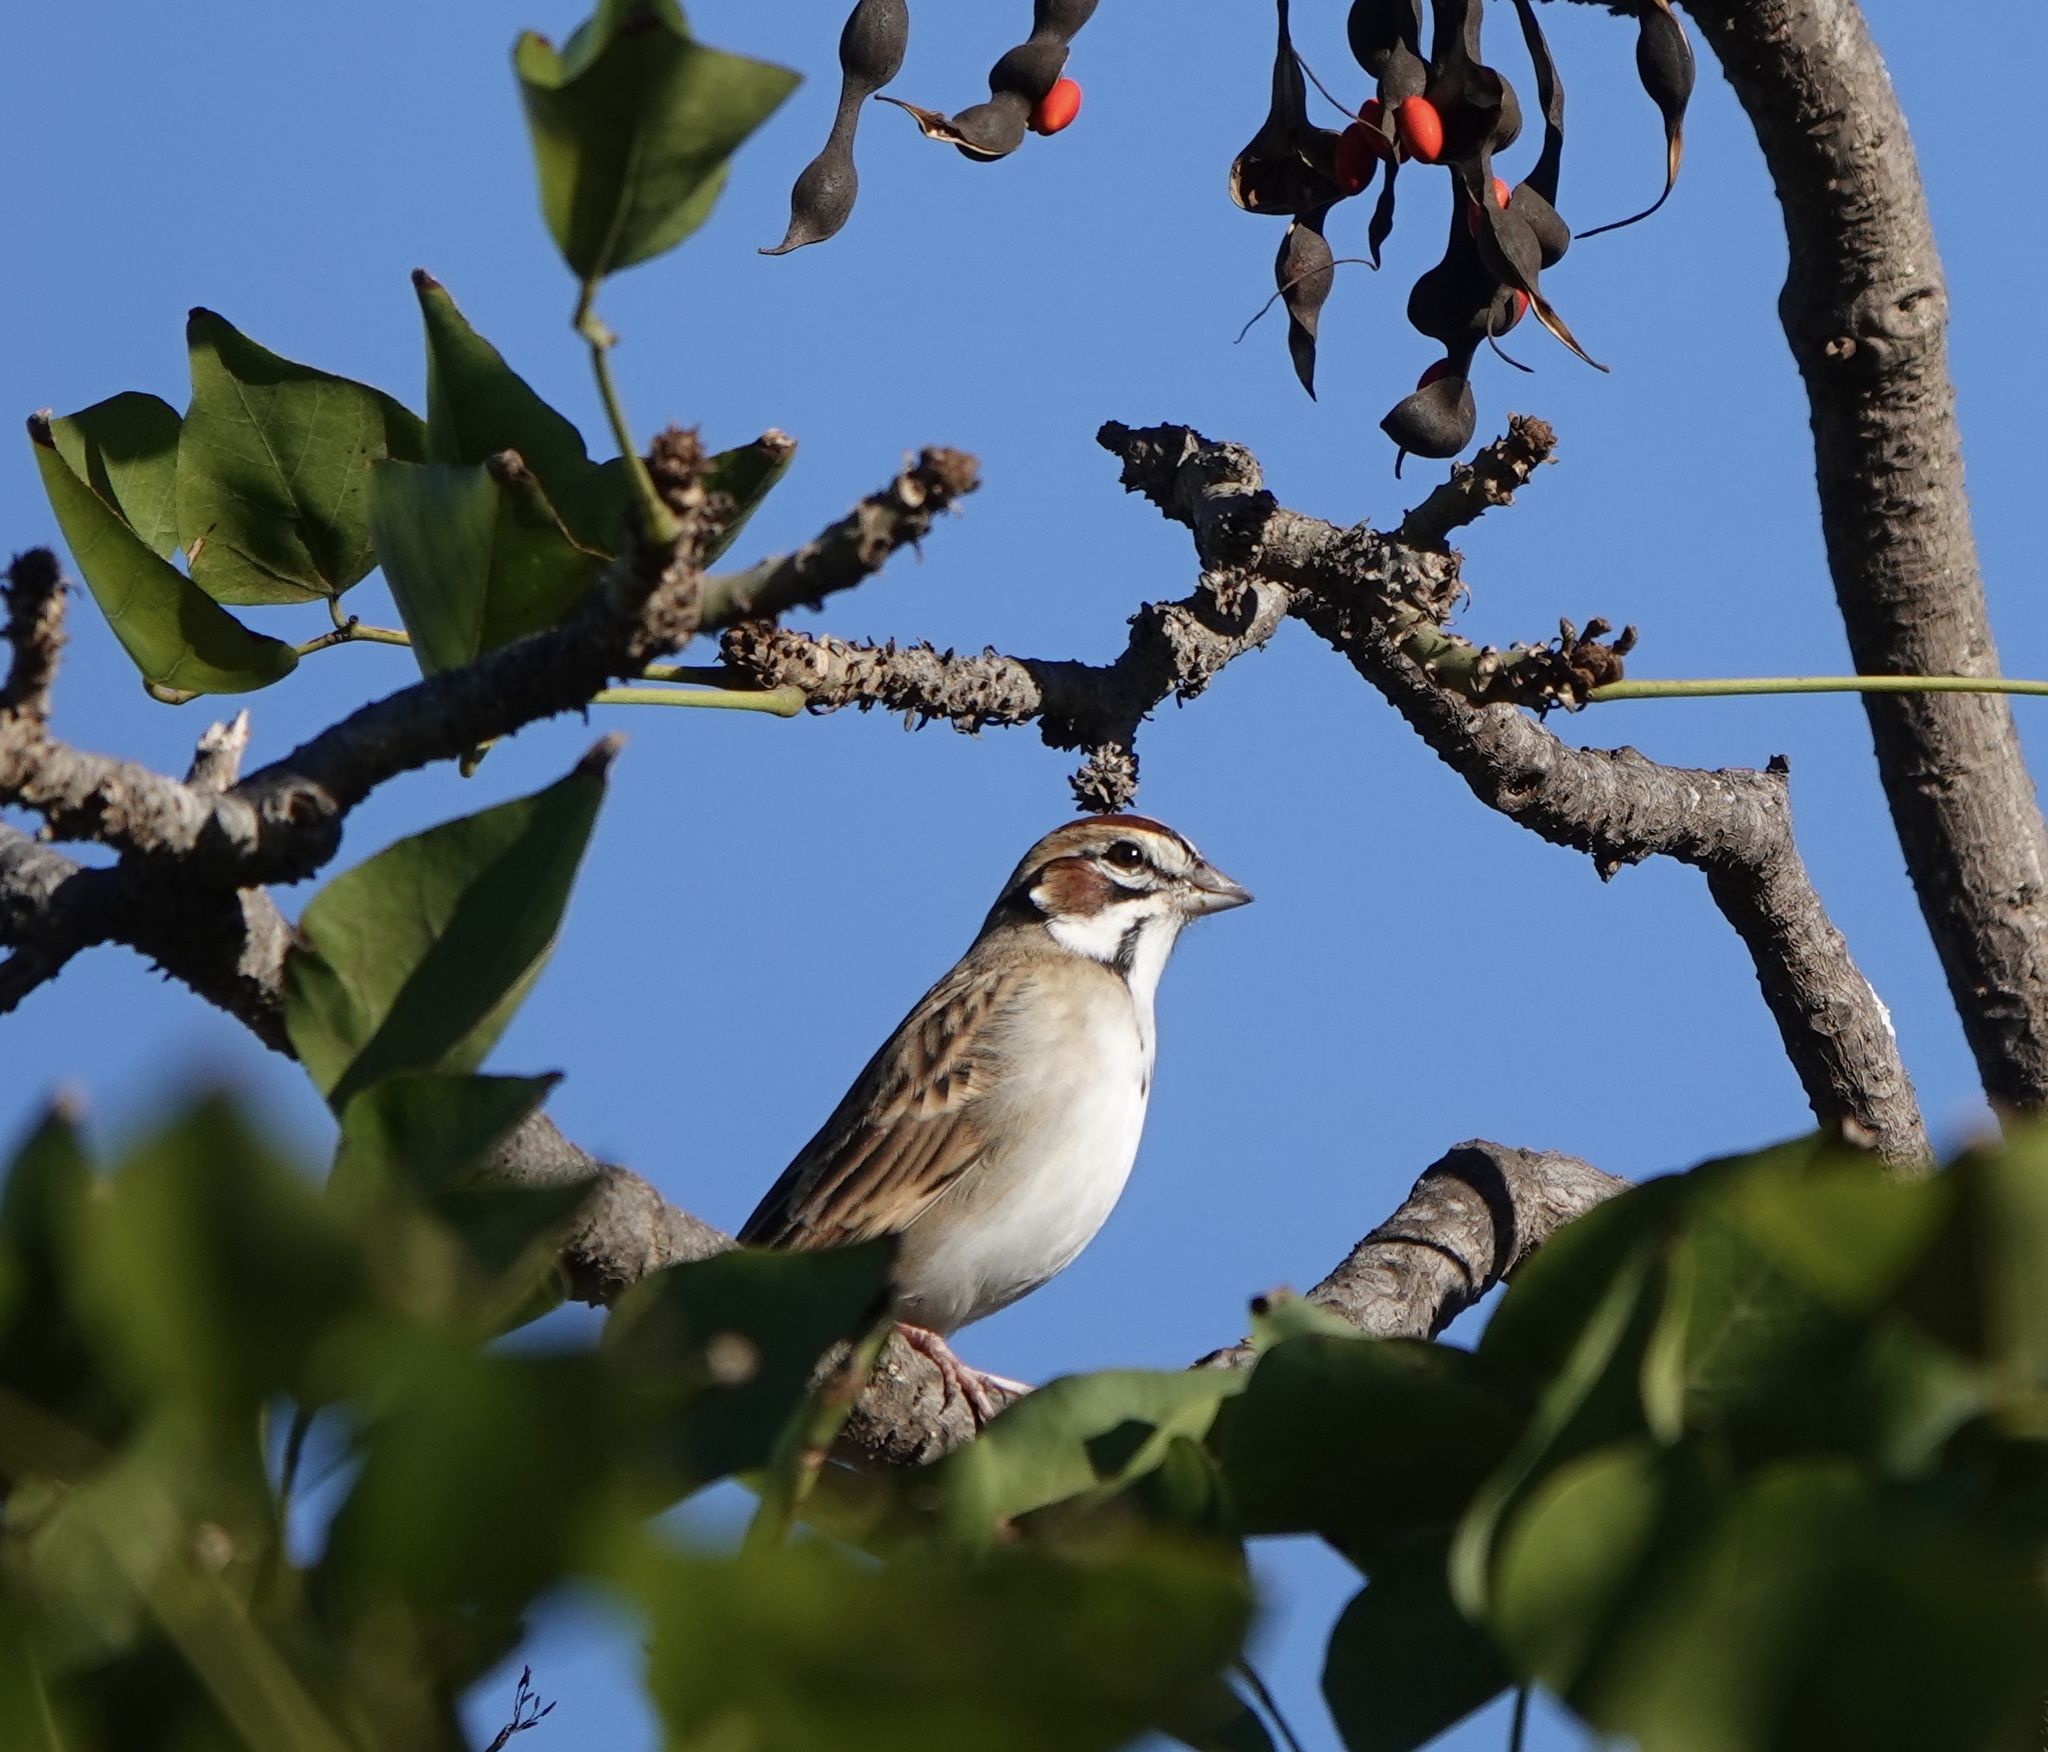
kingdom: Animalia
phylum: Chordata
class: Aves
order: Passeriformes
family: Passerellidae
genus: Chondestes
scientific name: Chondestes grammacus
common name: Lark sparrow
